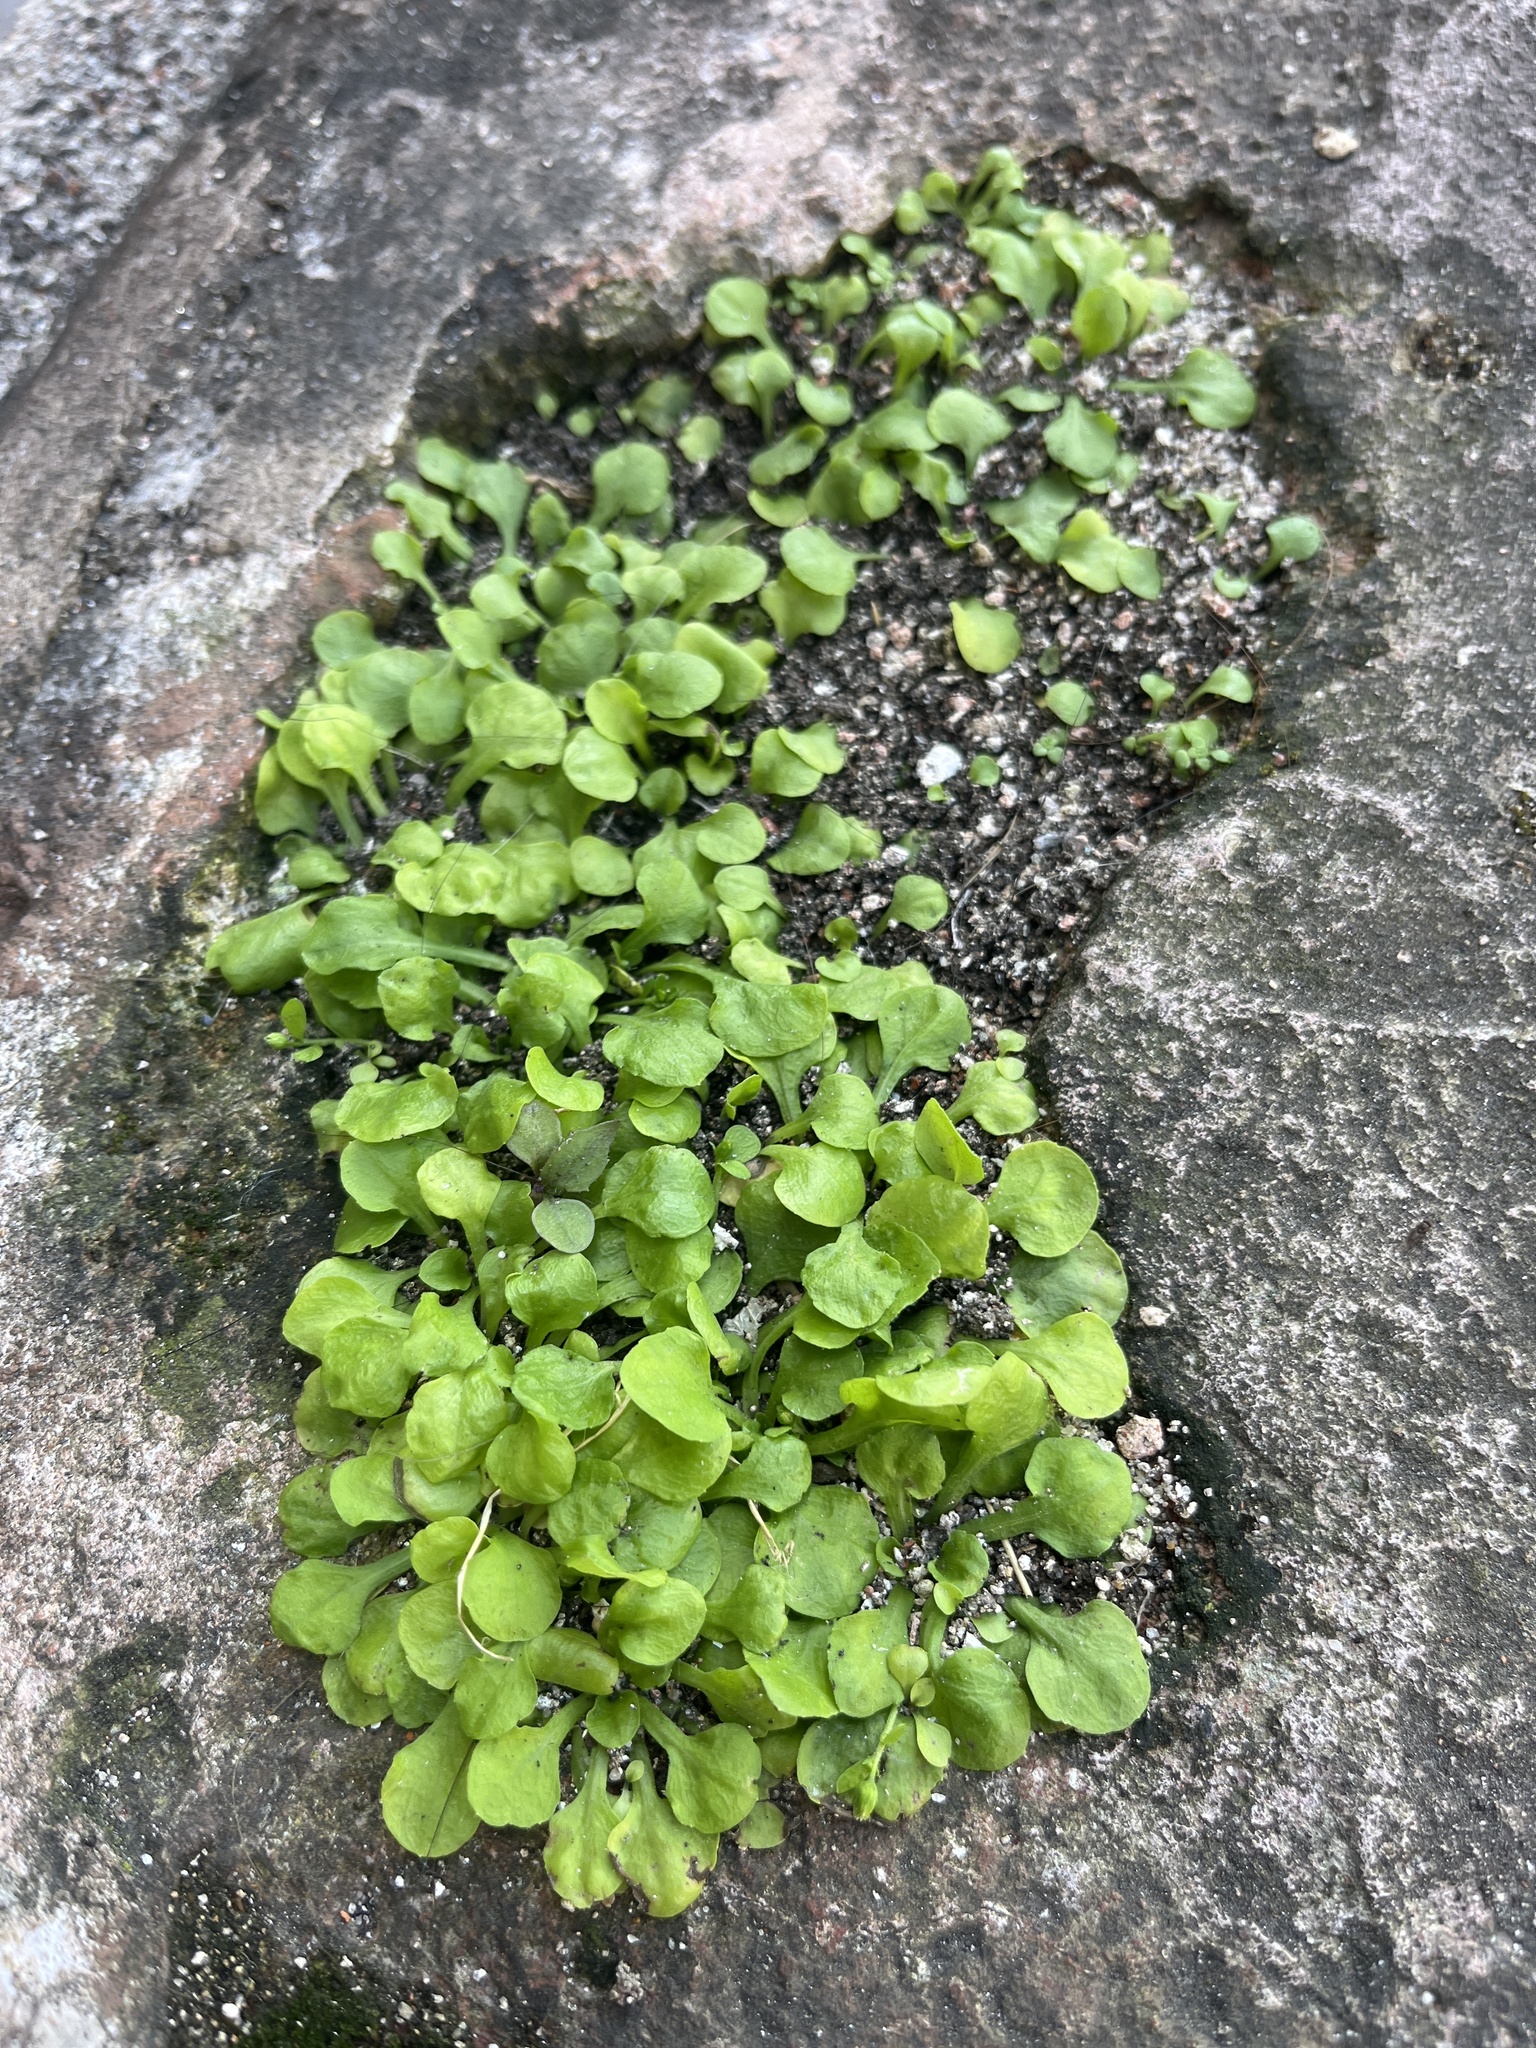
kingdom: Plantae
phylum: Tracheophyta
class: Magnoliopsida
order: Asterales
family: Asteraceae
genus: Erigeron
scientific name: Erigeron bellioides
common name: Bellorita
